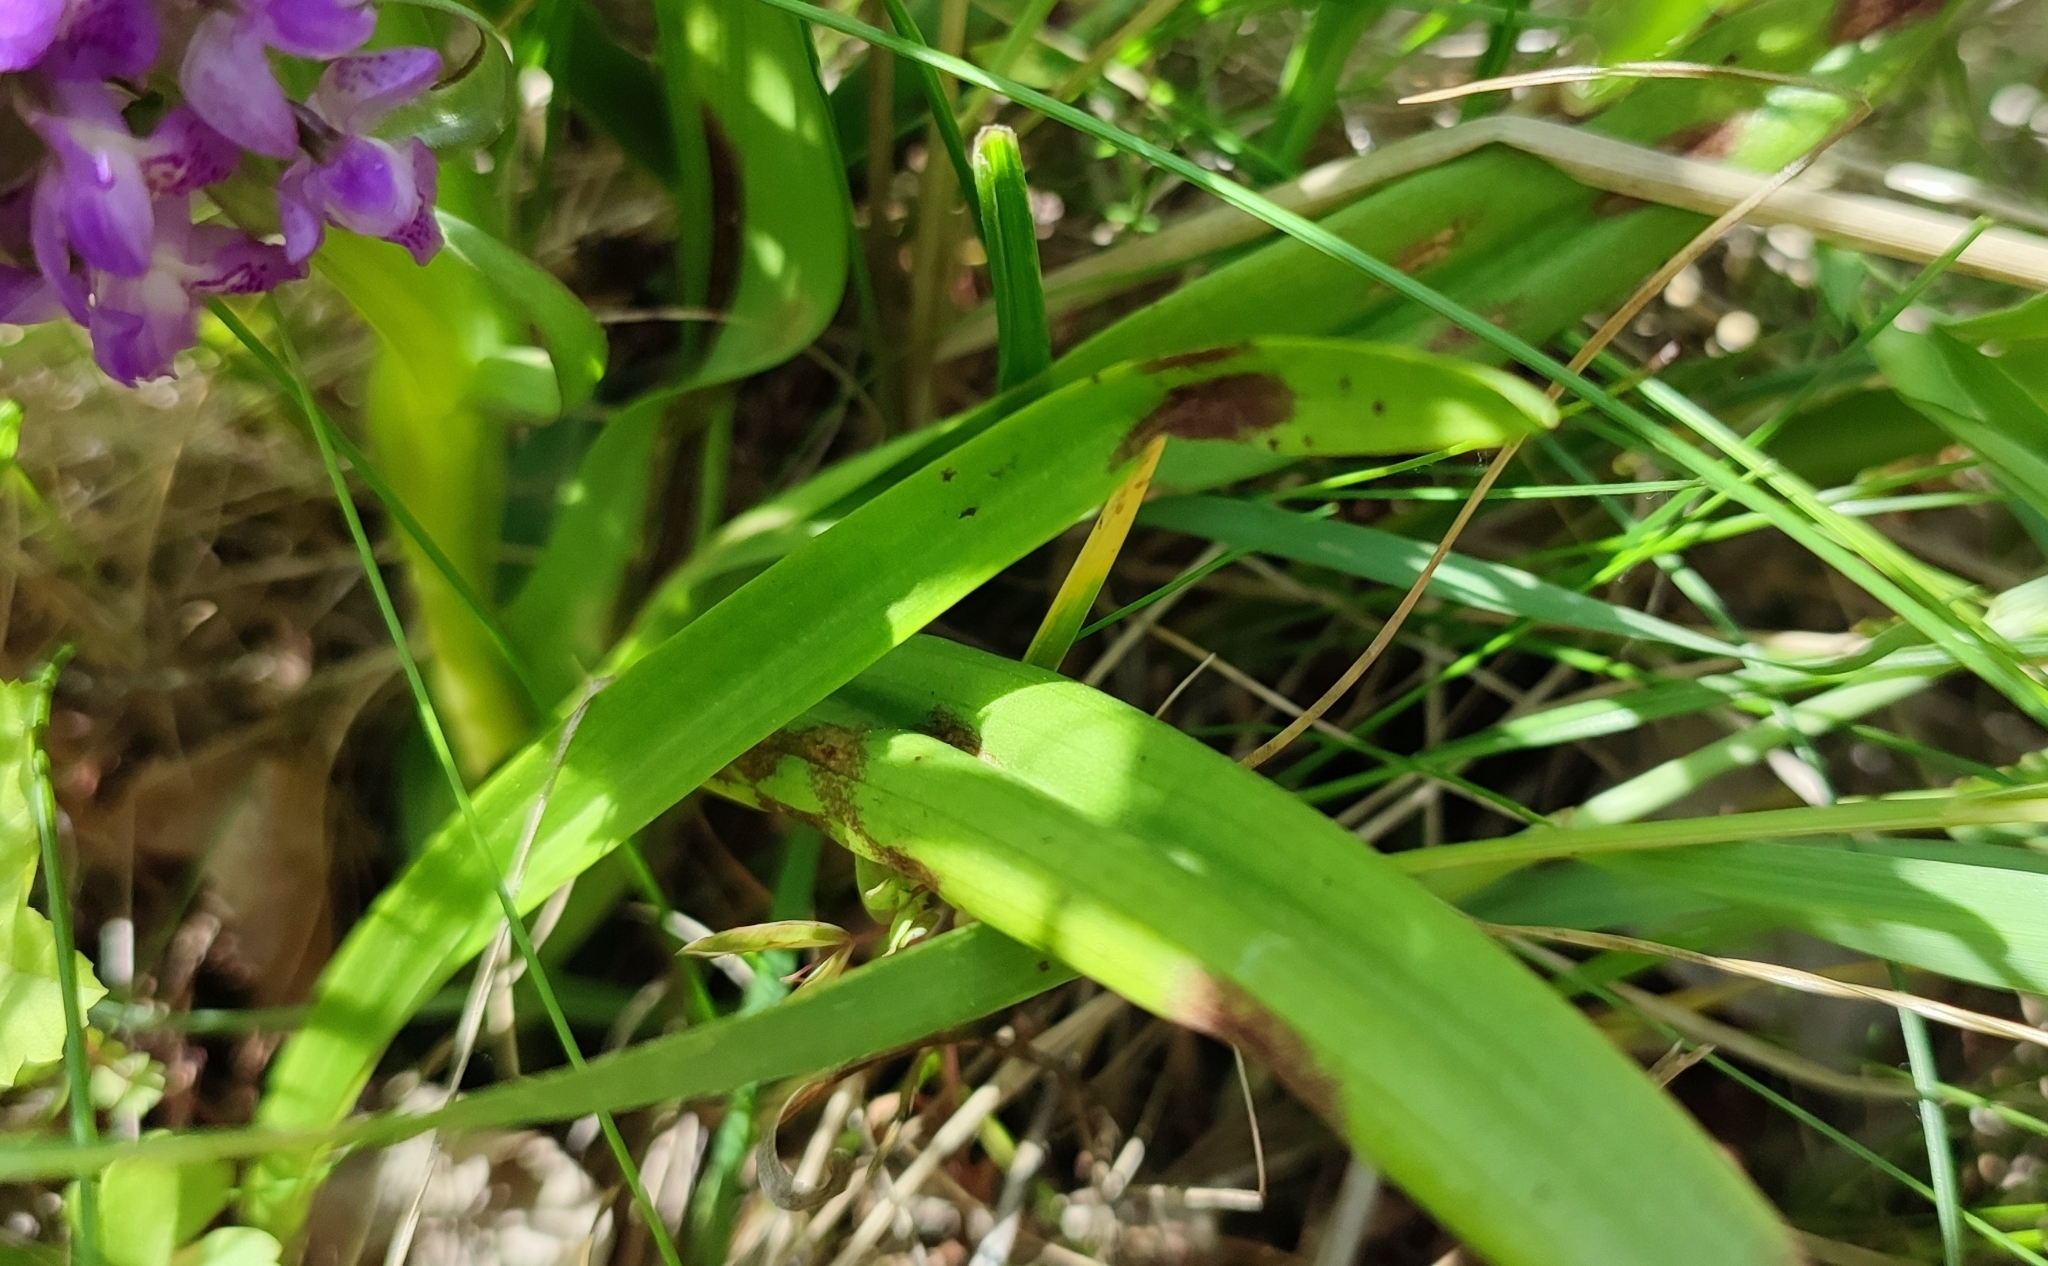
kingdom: Plantae
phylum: Tracheophyta
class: Liliopsida
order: Asparagales
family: Orchidaceae
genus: Dactylorhiza
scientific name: Dactylorhiza incarnata
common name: Early marsh-orchid
